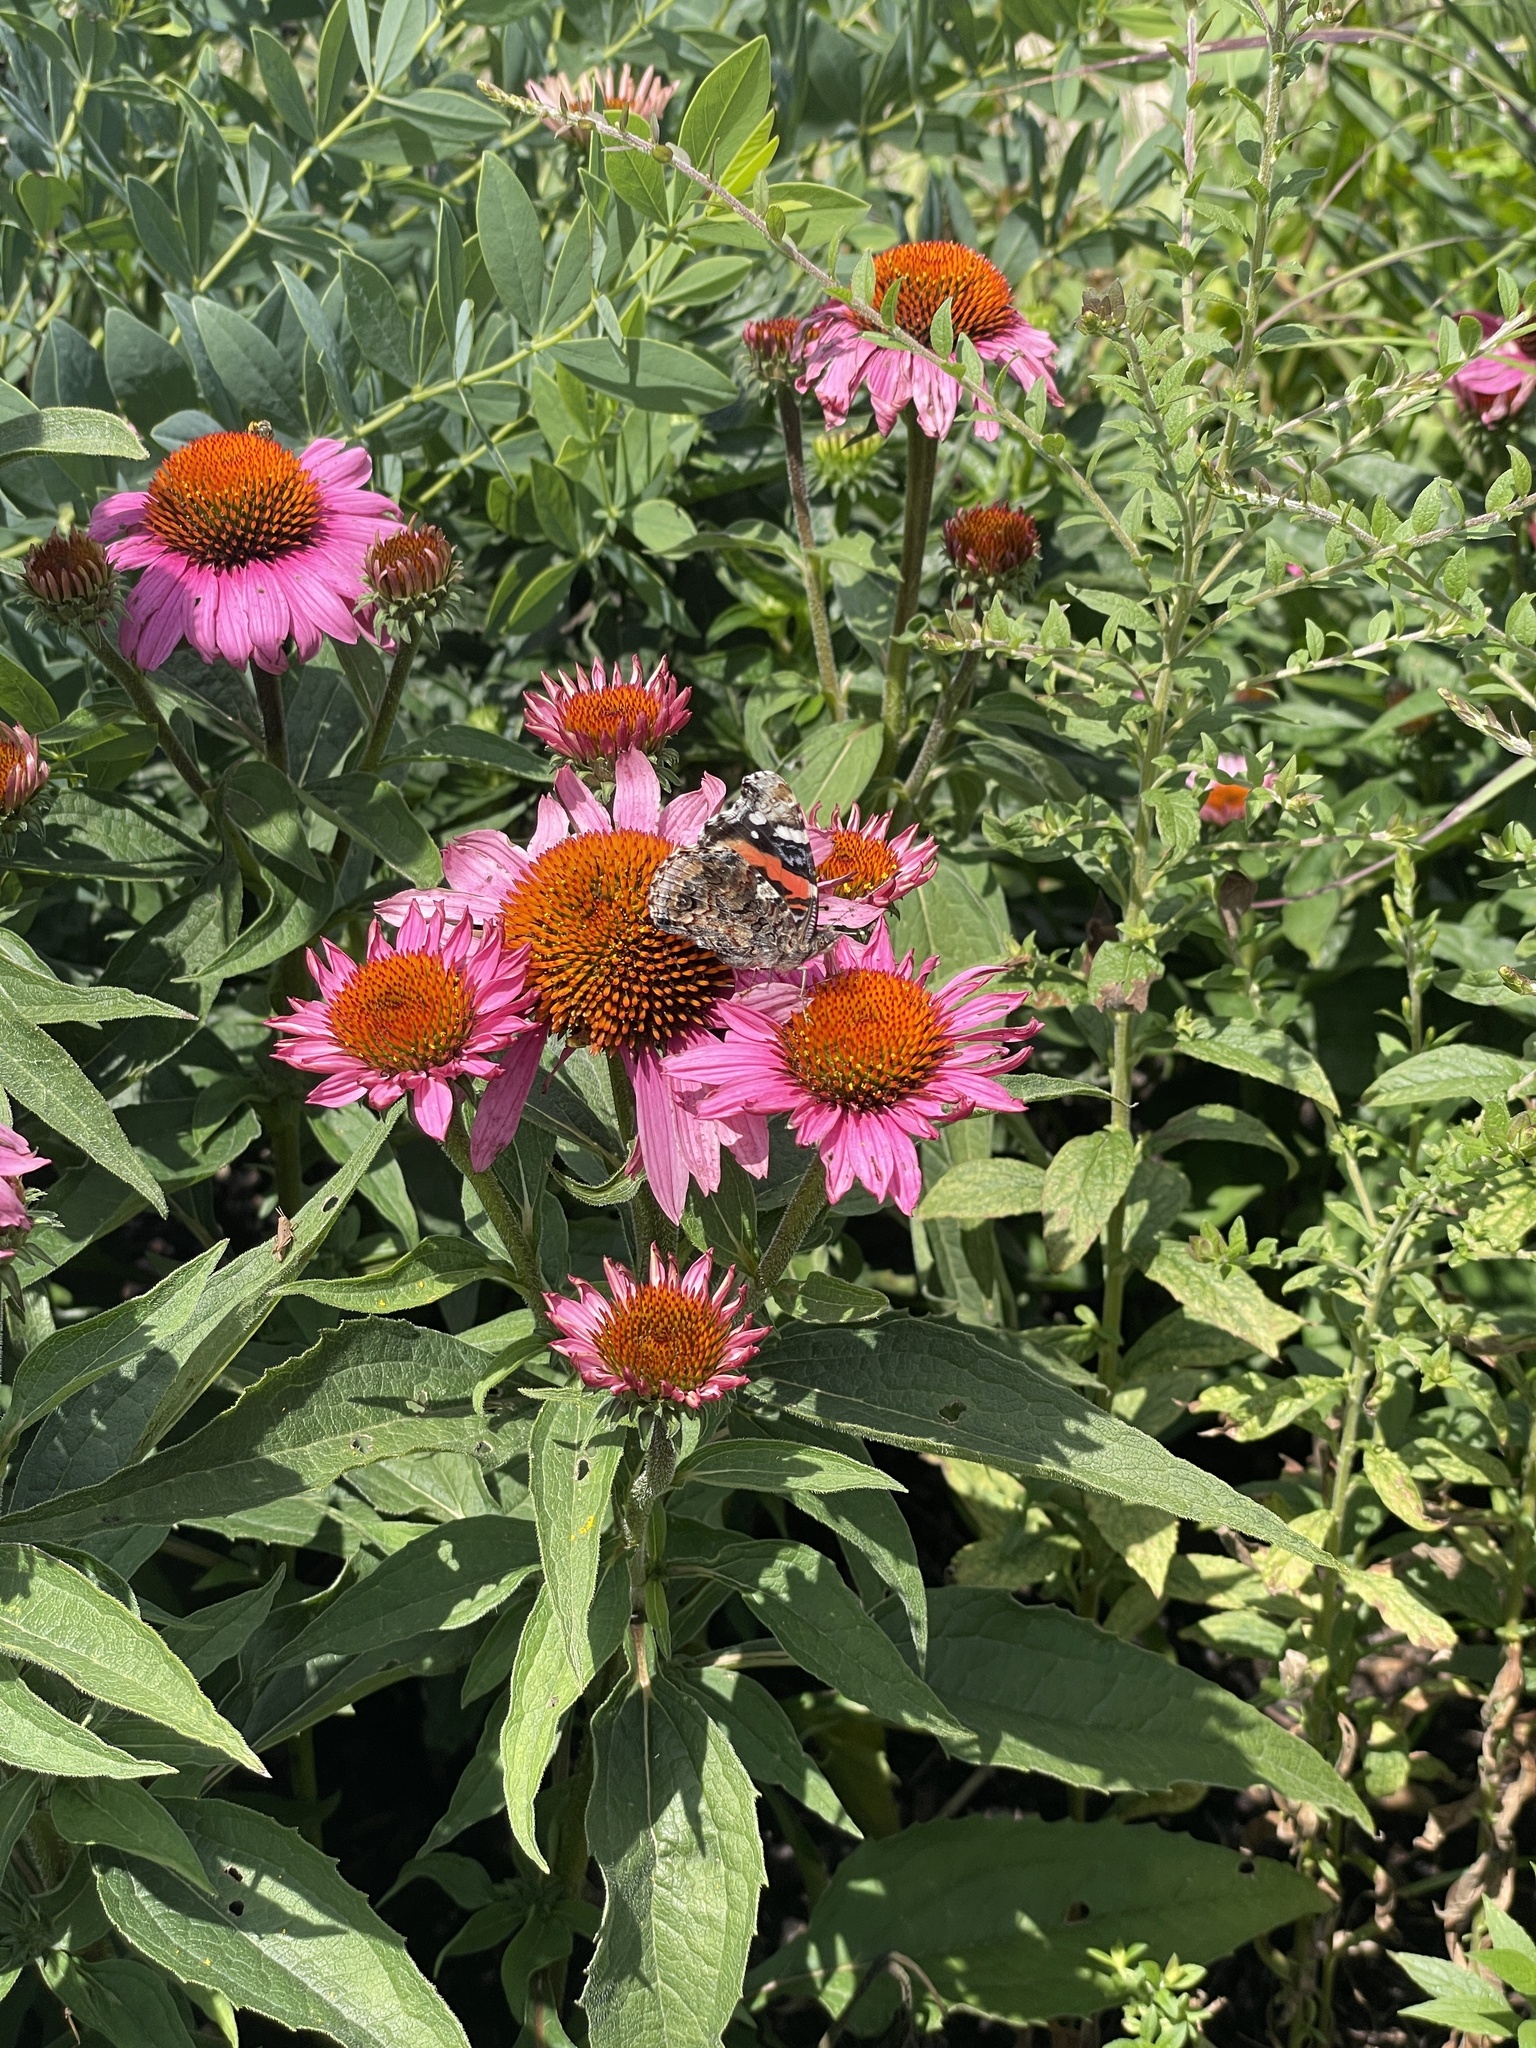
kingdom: Animalia
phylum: Arthropoda
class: Insecta
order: Lepidoptera
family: Nymphalidae
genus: Vanessa
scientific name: Vanessa atalanta
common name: Red admiral
